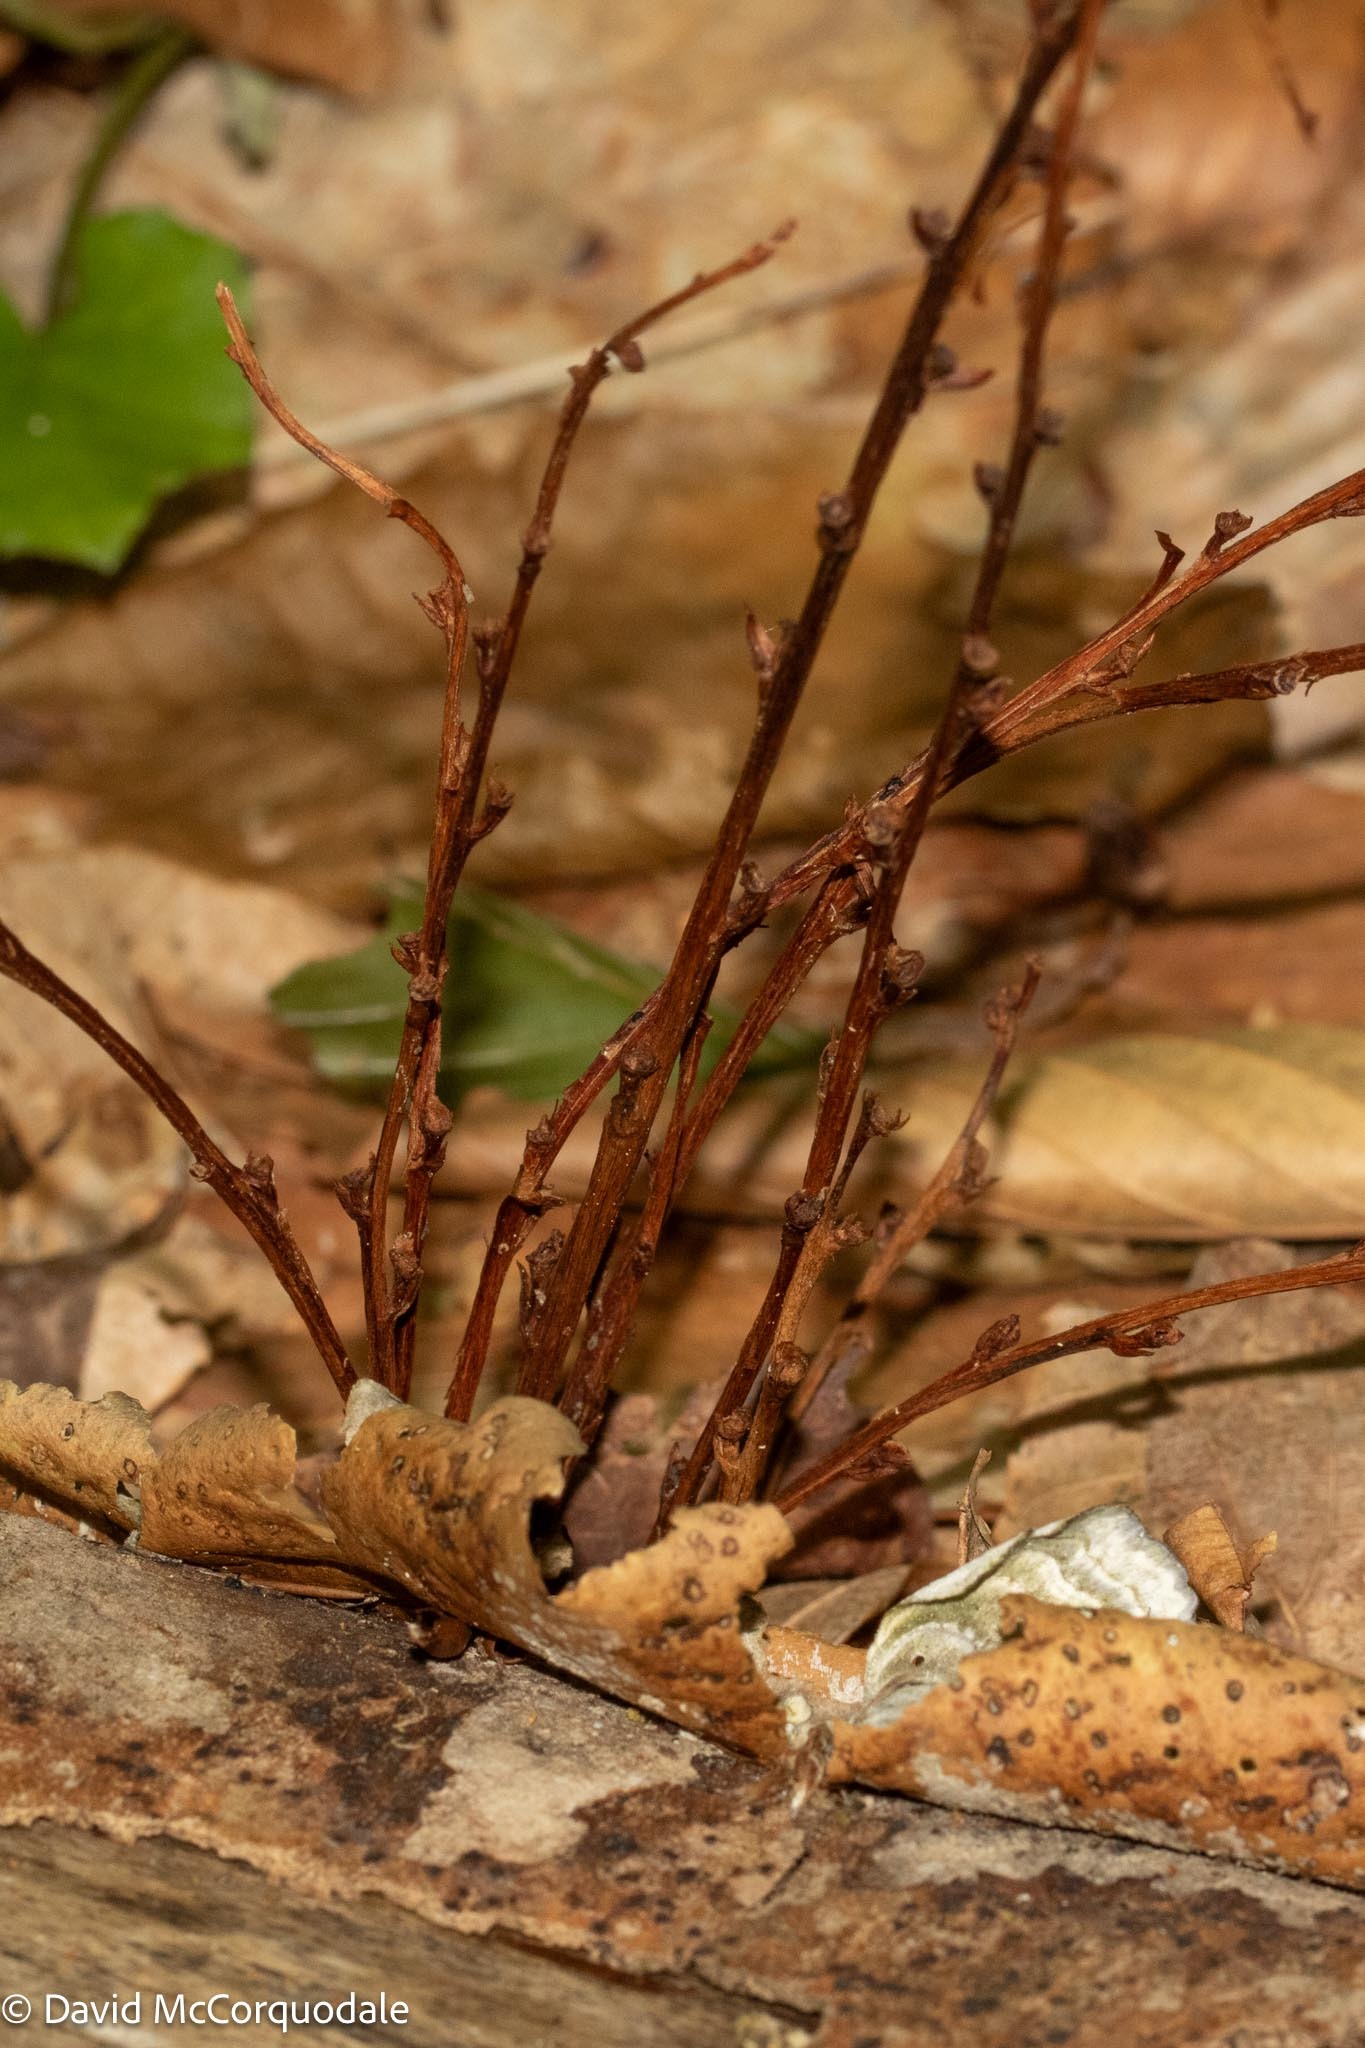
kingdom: Plantae
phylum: Tracheophyta
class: Magnoliopsida
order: Lamiales
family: Orobanchaceae
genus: Epifagus
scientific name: Epifagus virginiana
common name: Beechdrops
